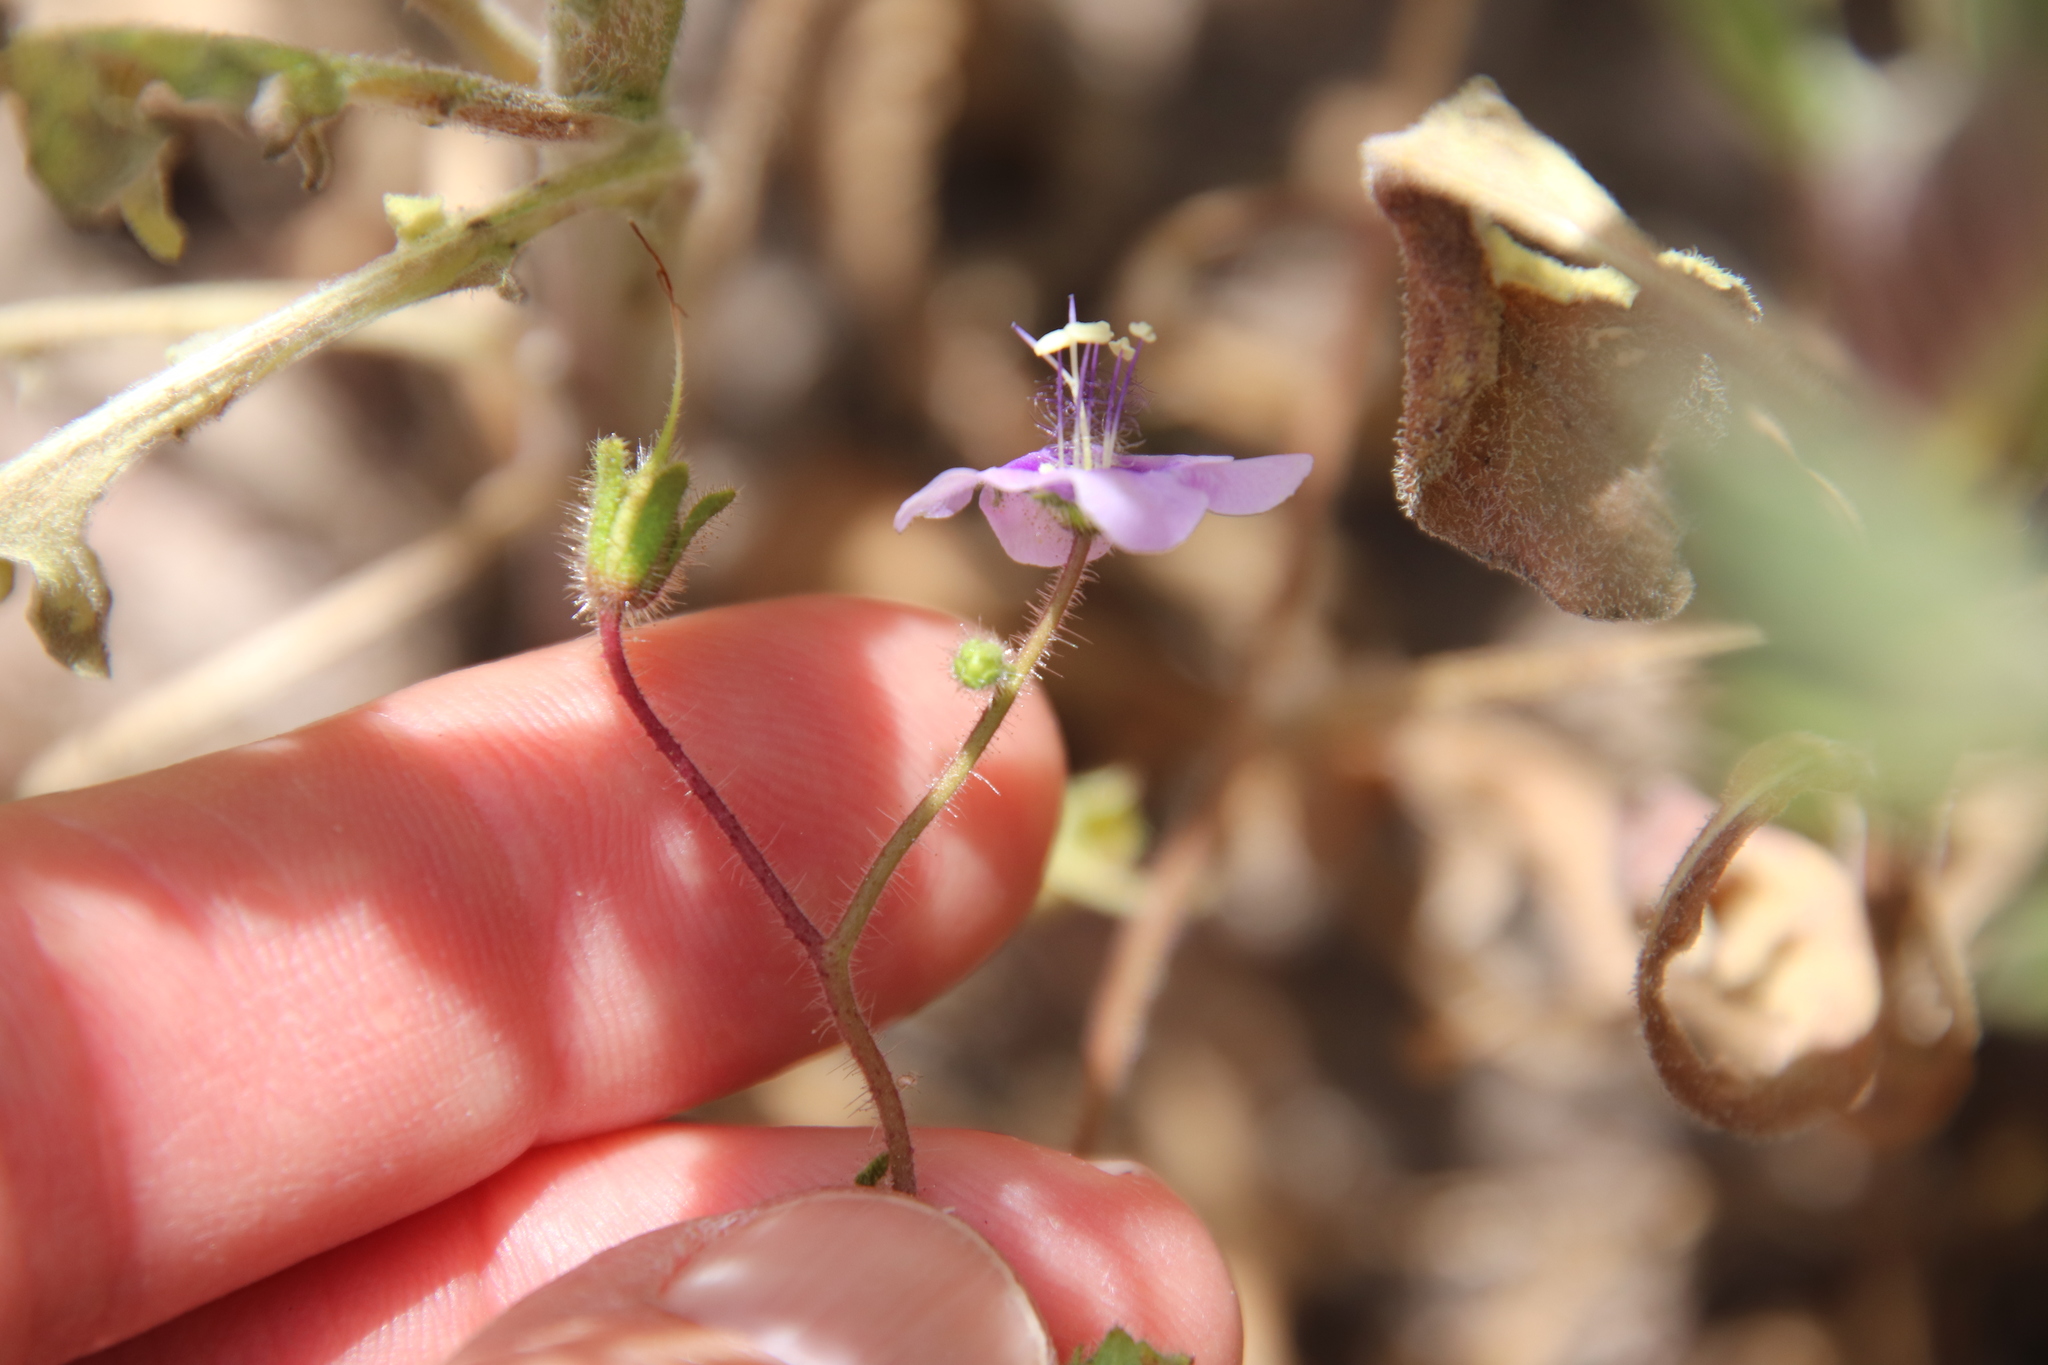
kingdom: Plantae
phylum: Tracheophyta
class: Magnoliopsida
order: Boraginales
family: Hydrophyllaceae
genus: Phacelia
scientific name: Phacelia parryi
